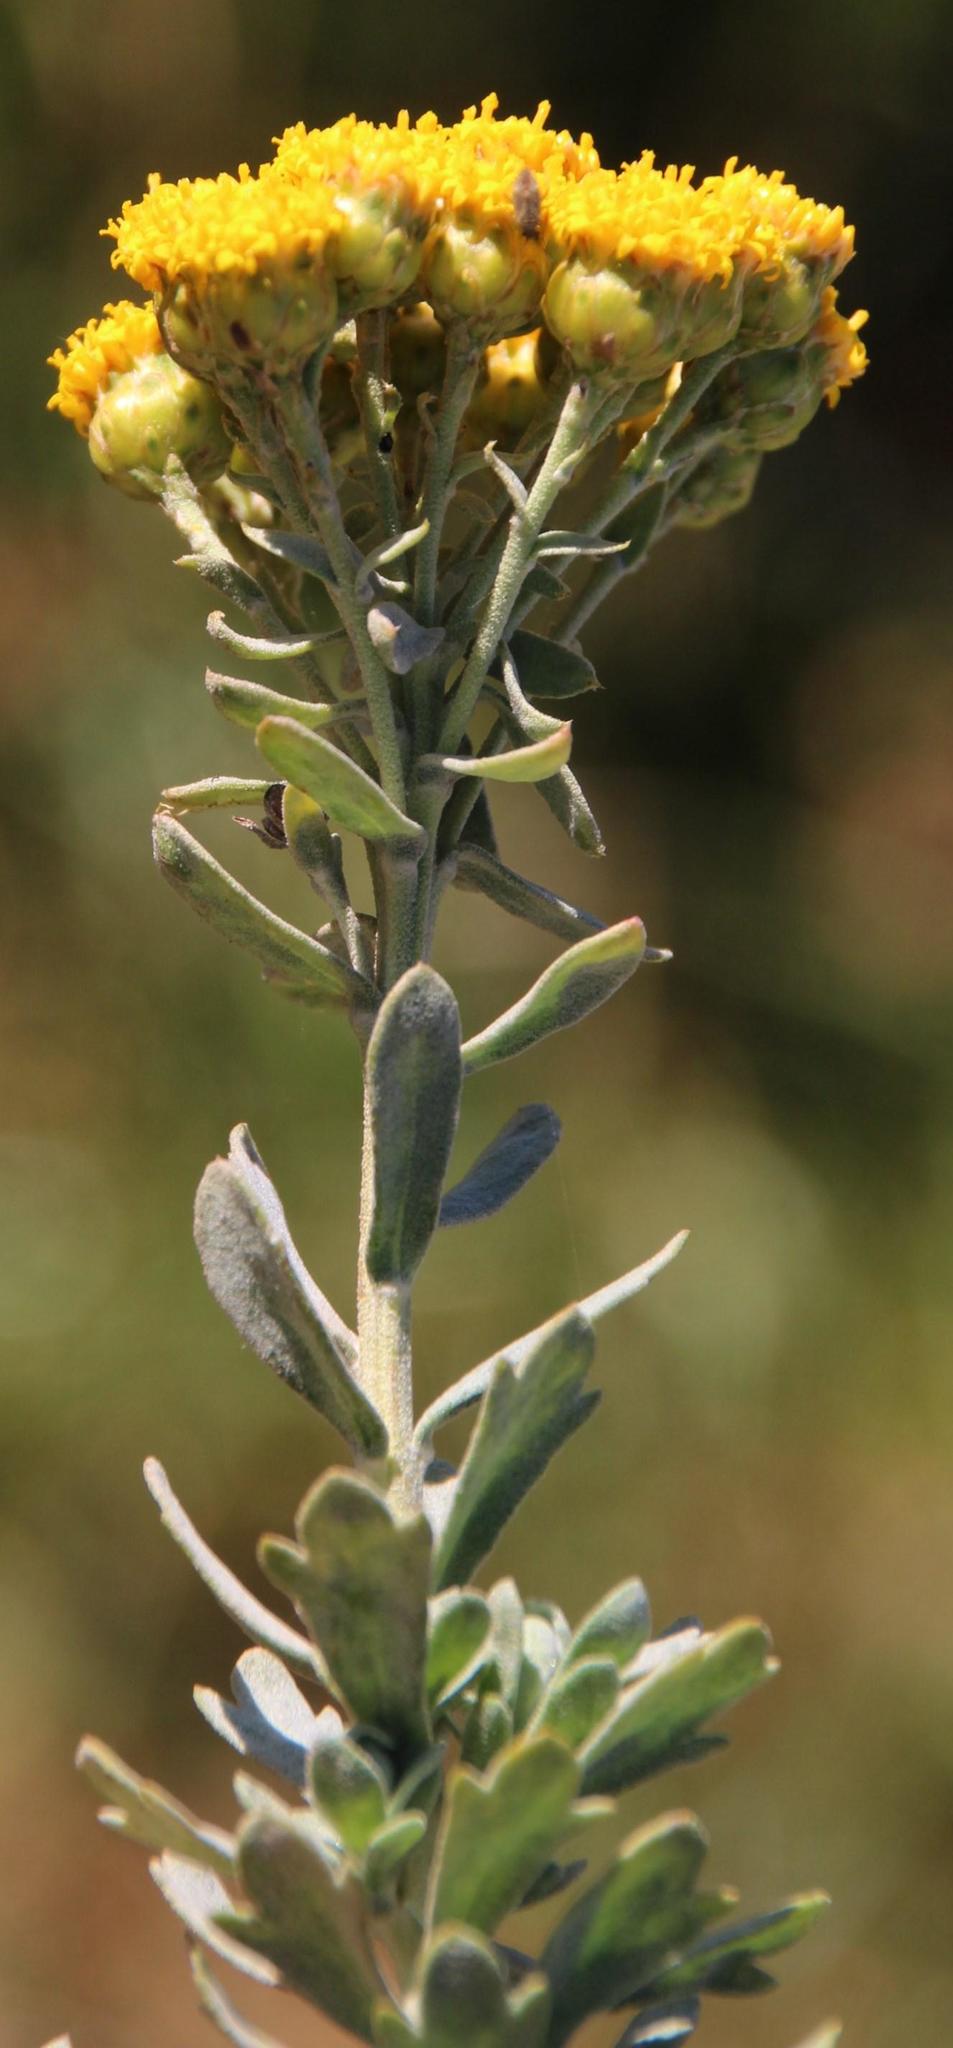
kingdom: Plantae
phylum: Tracheophyta
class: Magnoliopsida
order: Asterales
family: Asteraceae
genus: Athanasia
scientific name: Athanasia trifurcata
